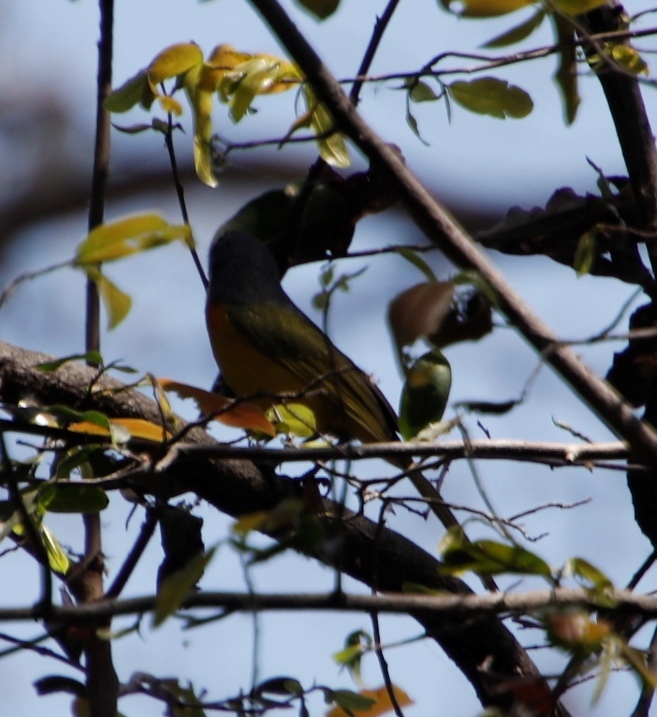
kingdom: Animalia
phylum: Chordata
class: Aves
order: Passeriformes
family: Pycnonotidae
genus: Pycnonotus
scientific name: Pycnonotus barbatus
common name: Common bulbul
